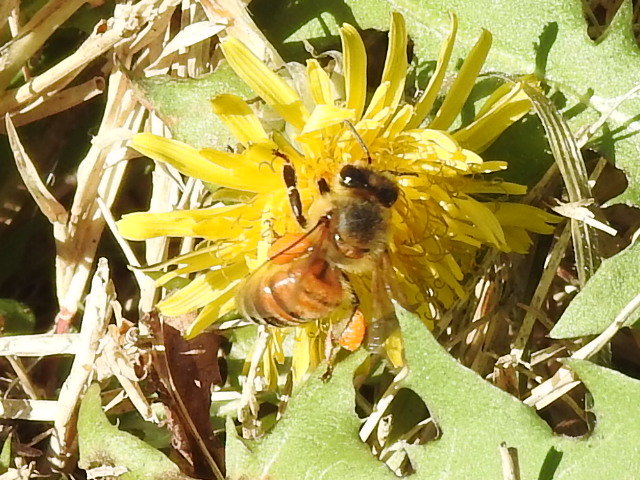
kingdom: Animalia
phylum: Arthropoda
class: Insecta
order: Hymenoptera
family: Apidae
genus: Apis
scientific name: Apis mellifera
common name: Honey bee
